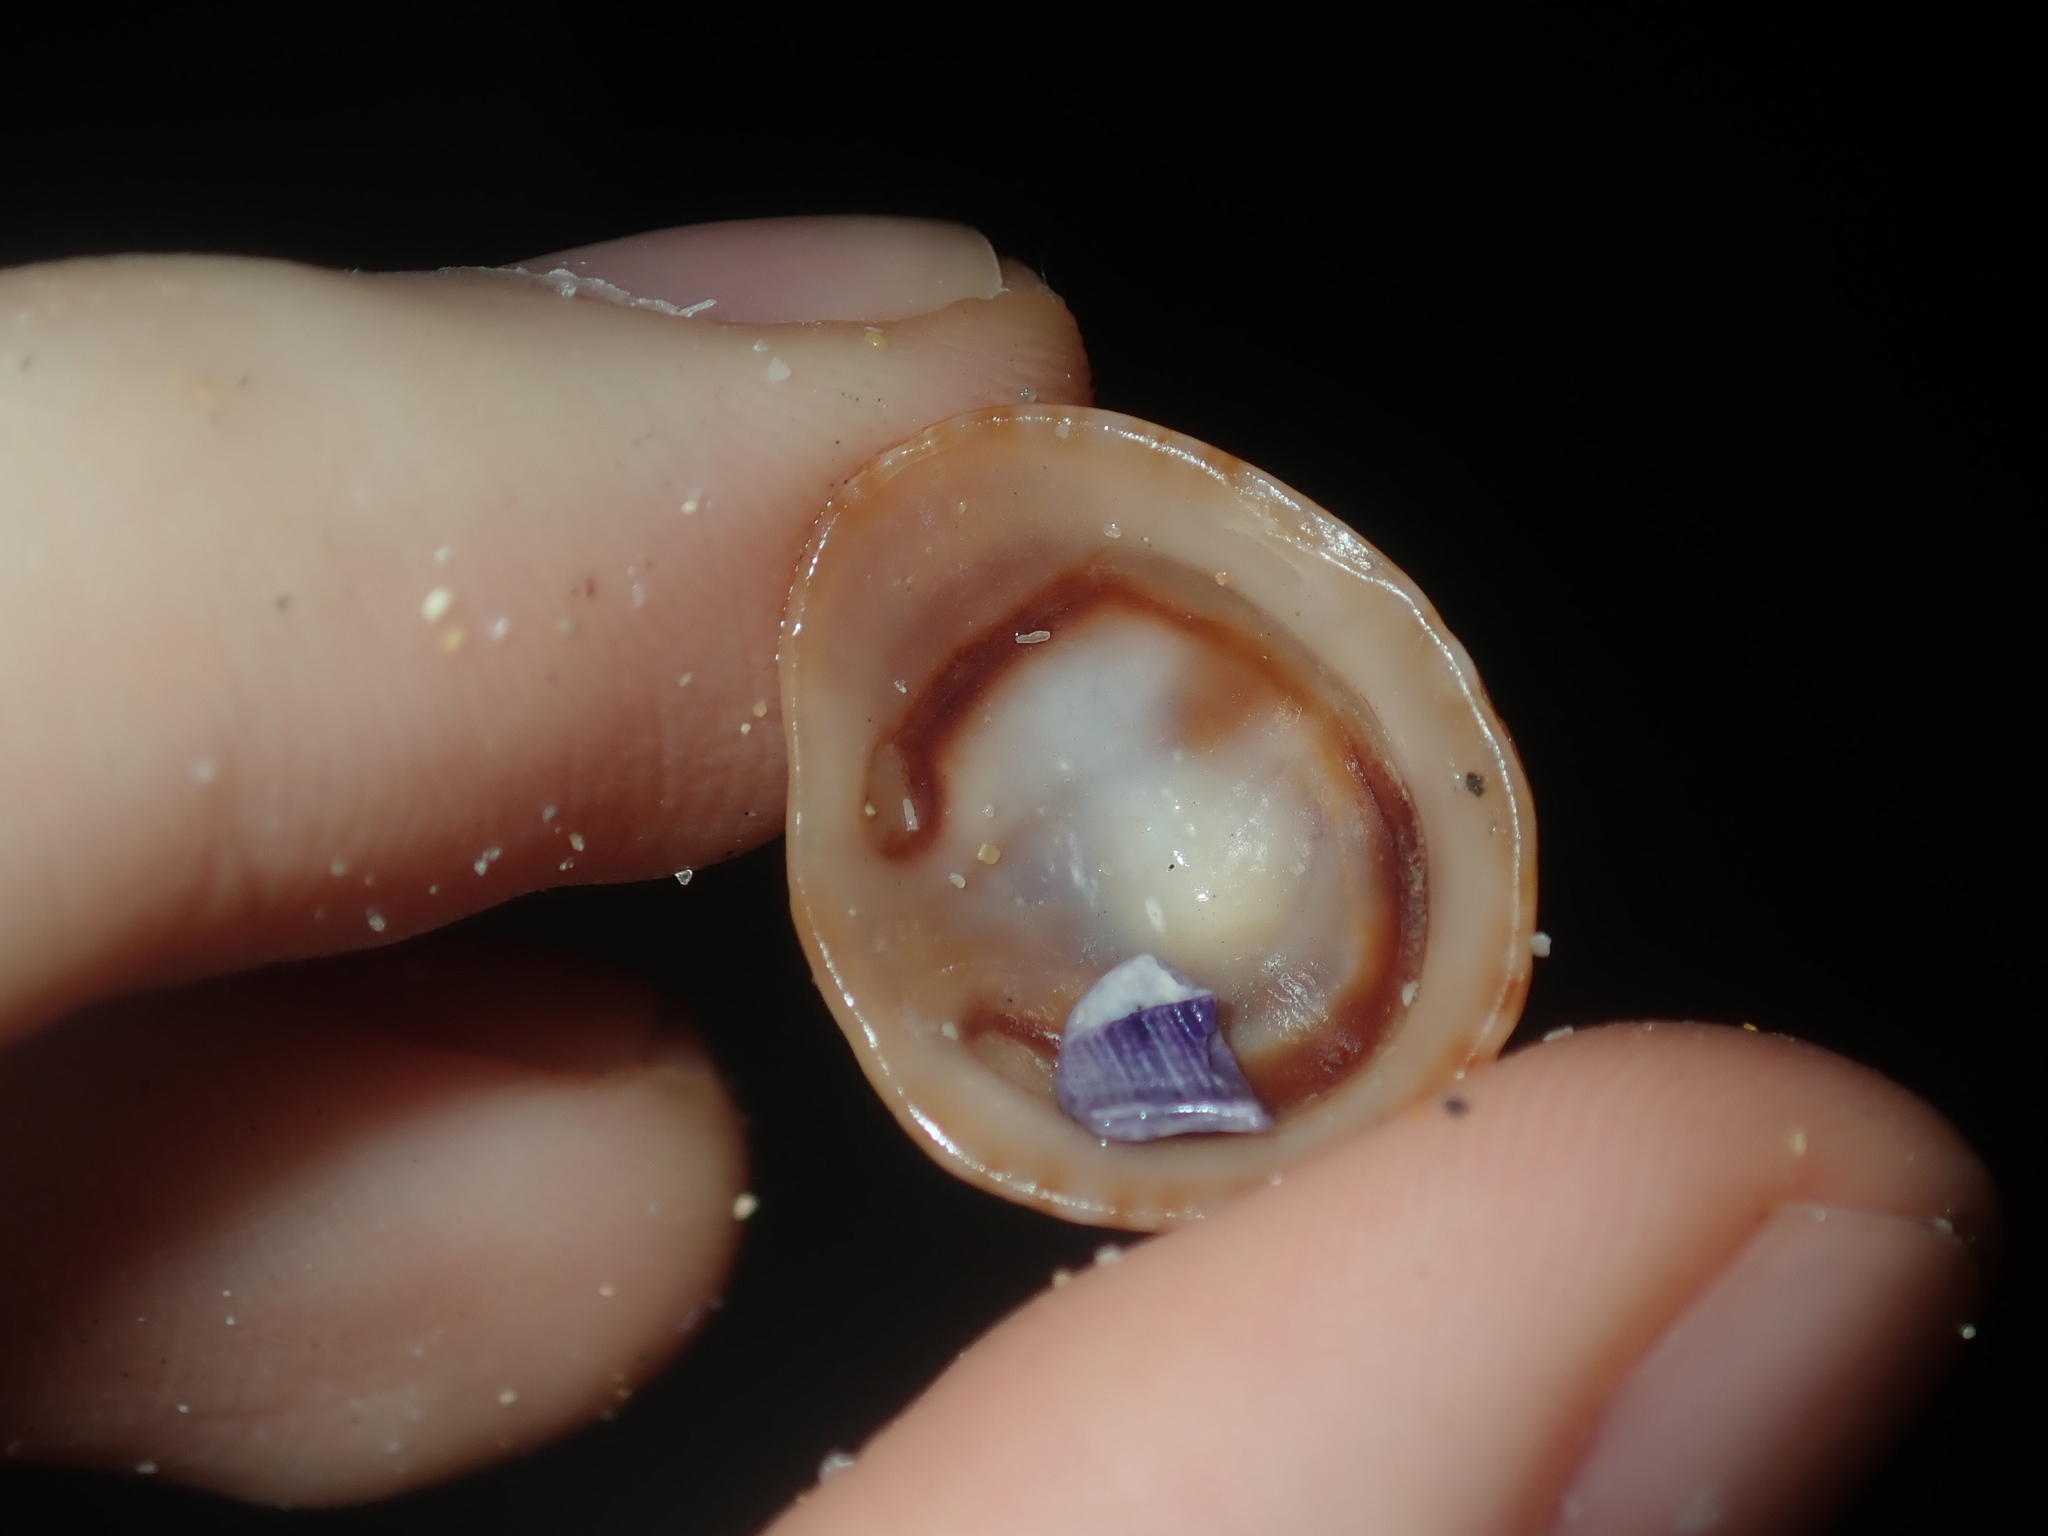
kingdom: Animalia
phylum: Mollusca
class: Gastropoda
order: Siphonariida
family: Siphonariidae
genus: Siphonaria
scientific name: Siphonaria funiculata
